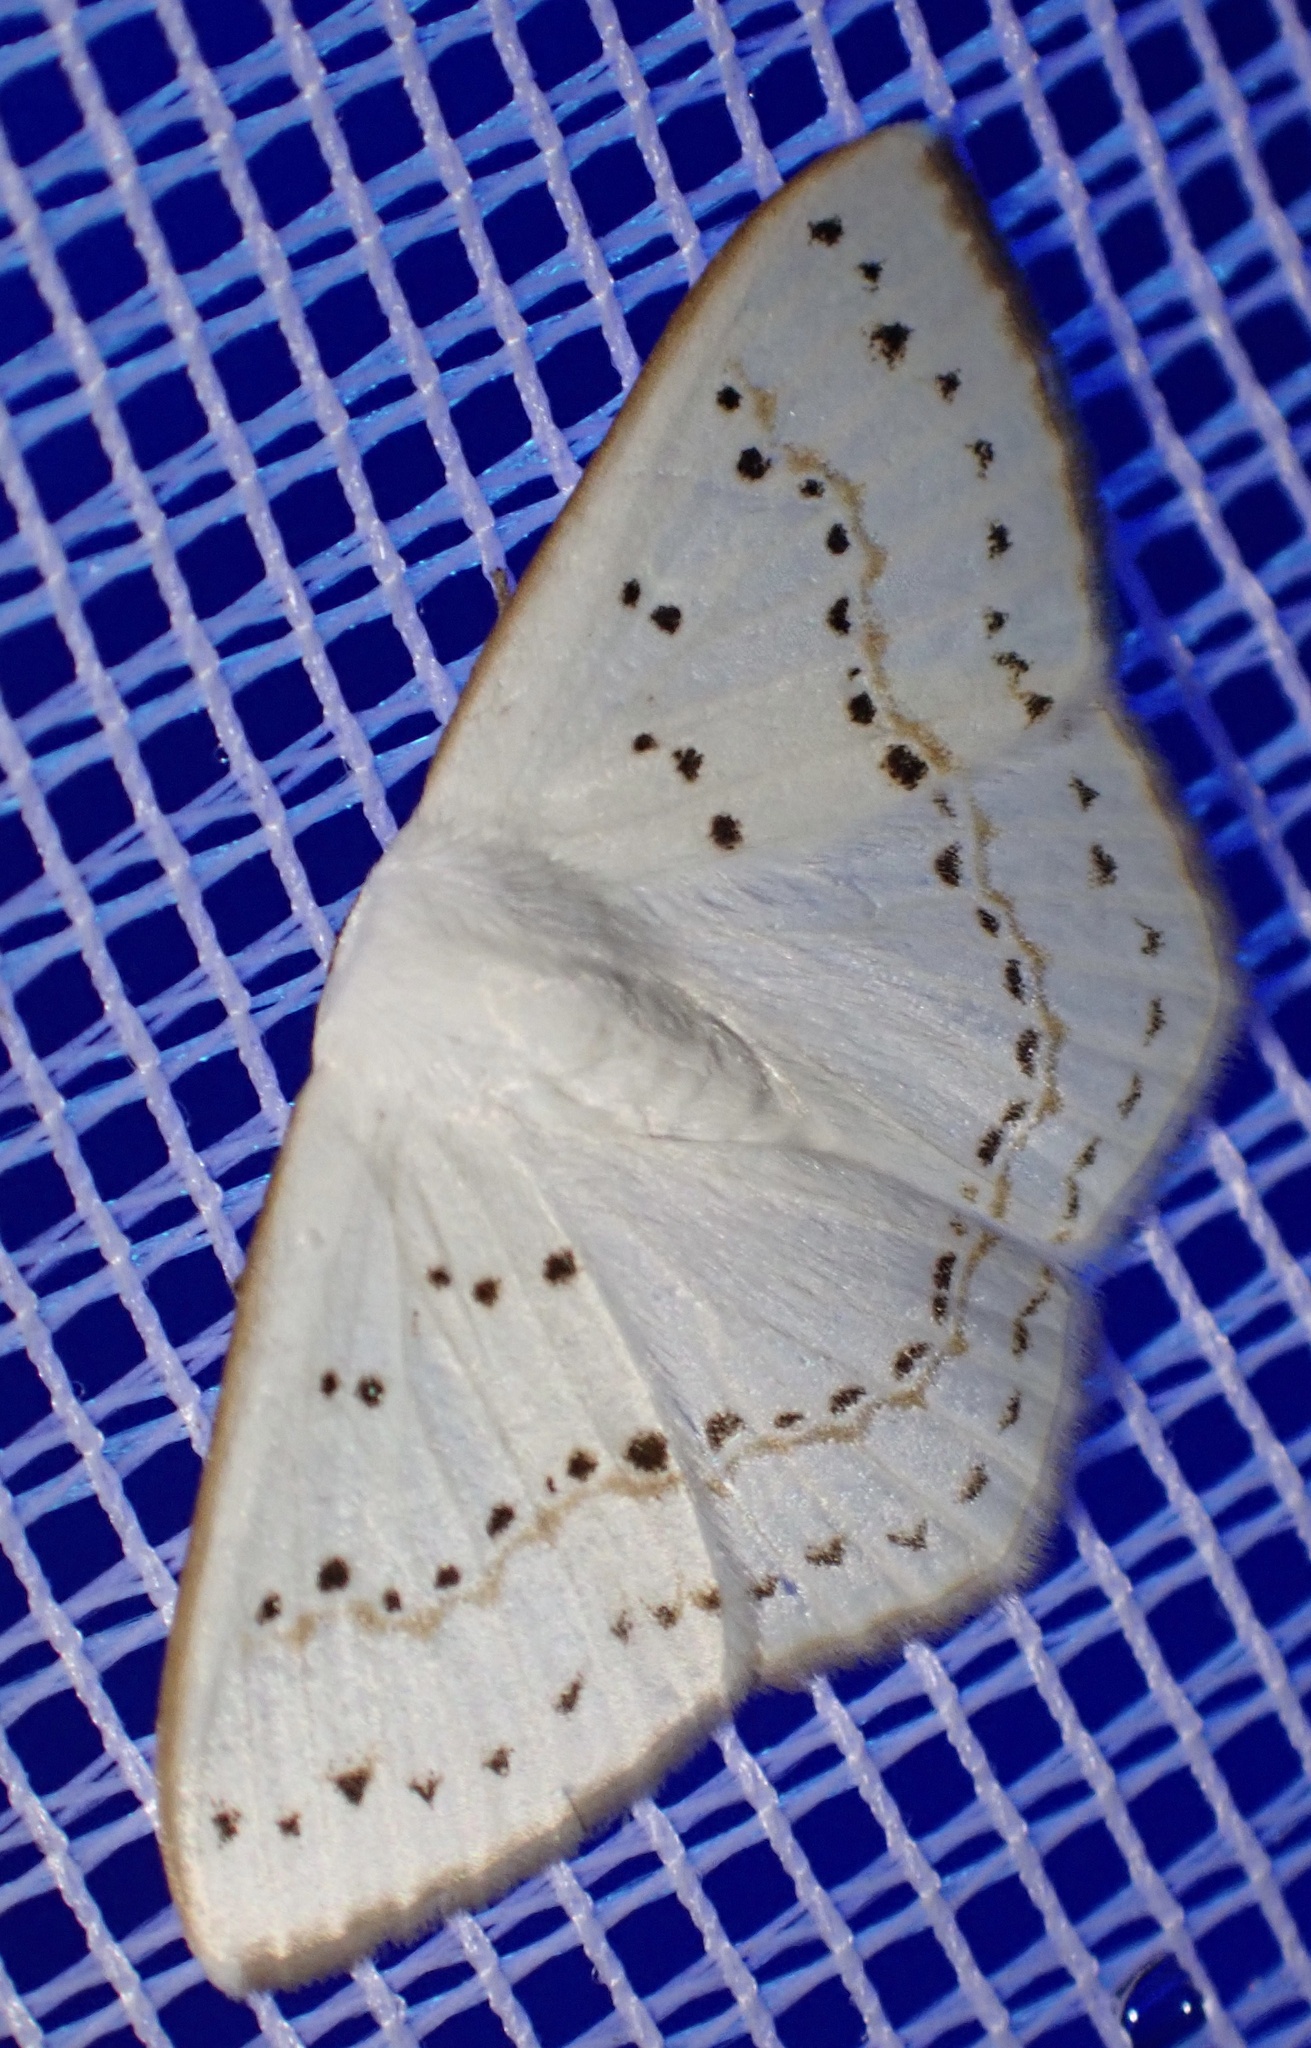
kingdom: Animalia
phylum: Arthropoda
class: Insecta
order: Lepidoptera
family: Drepanidae
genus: Teldenia
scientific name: Teldenia seriata
